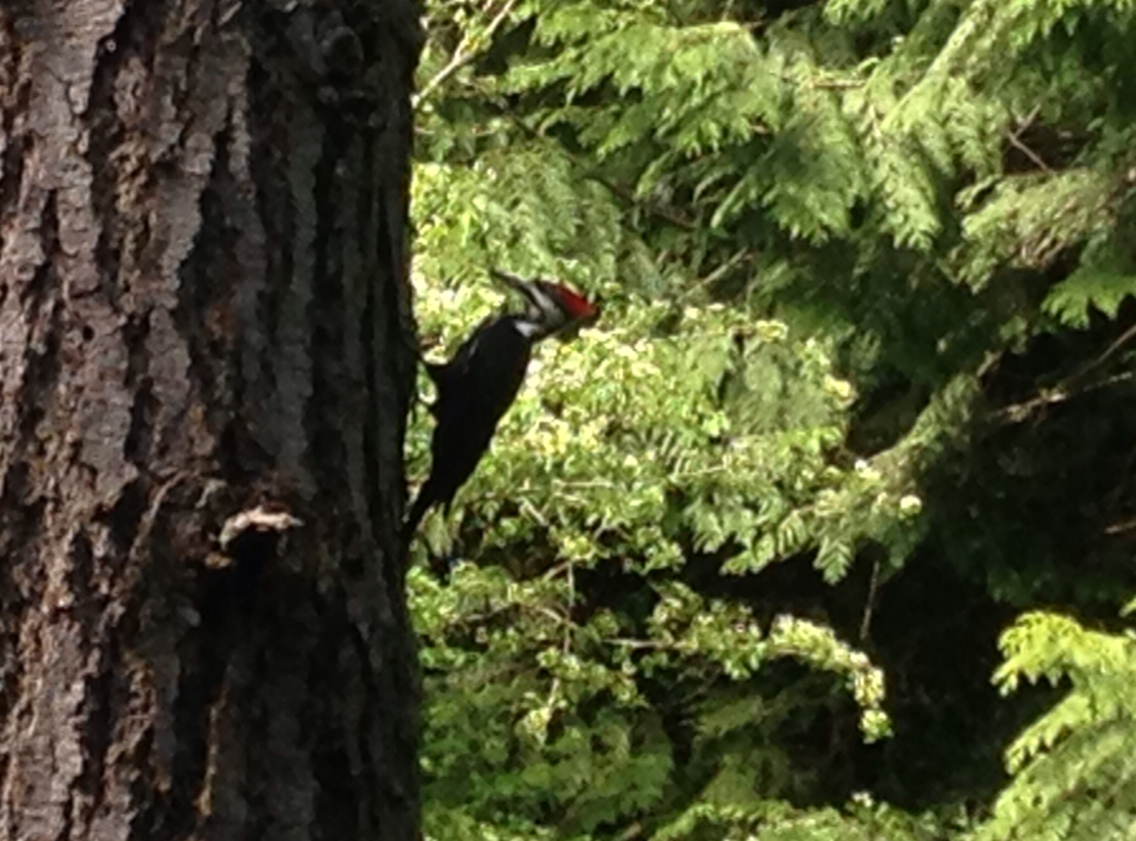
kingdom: Animalia
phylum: Chordata
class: Aves
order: Piciformes
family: Picidae
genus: Dryocopus
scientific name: Dryocopus pileatus
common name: Pileated woodpecker
